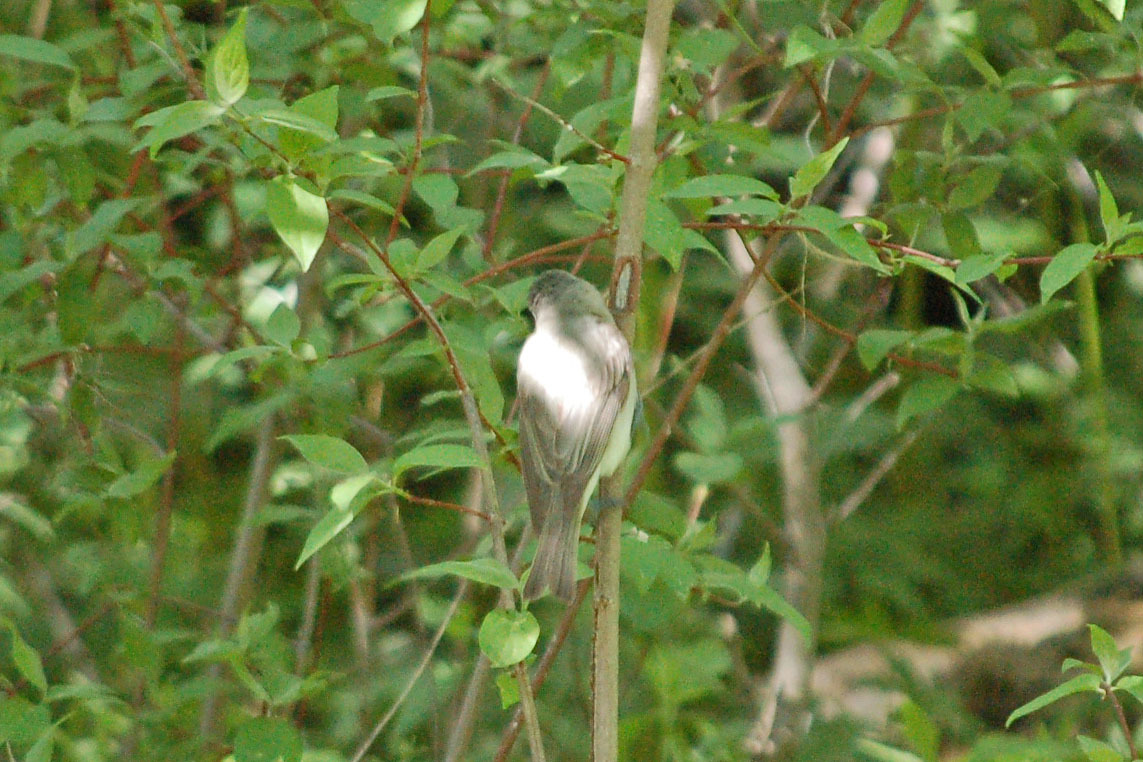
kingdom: Animalia
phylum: Chordata
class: Aves
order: Passeriformes
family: Vireonidae
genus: Vireo
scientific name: Vireo gilvus
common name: Warbling vireo
